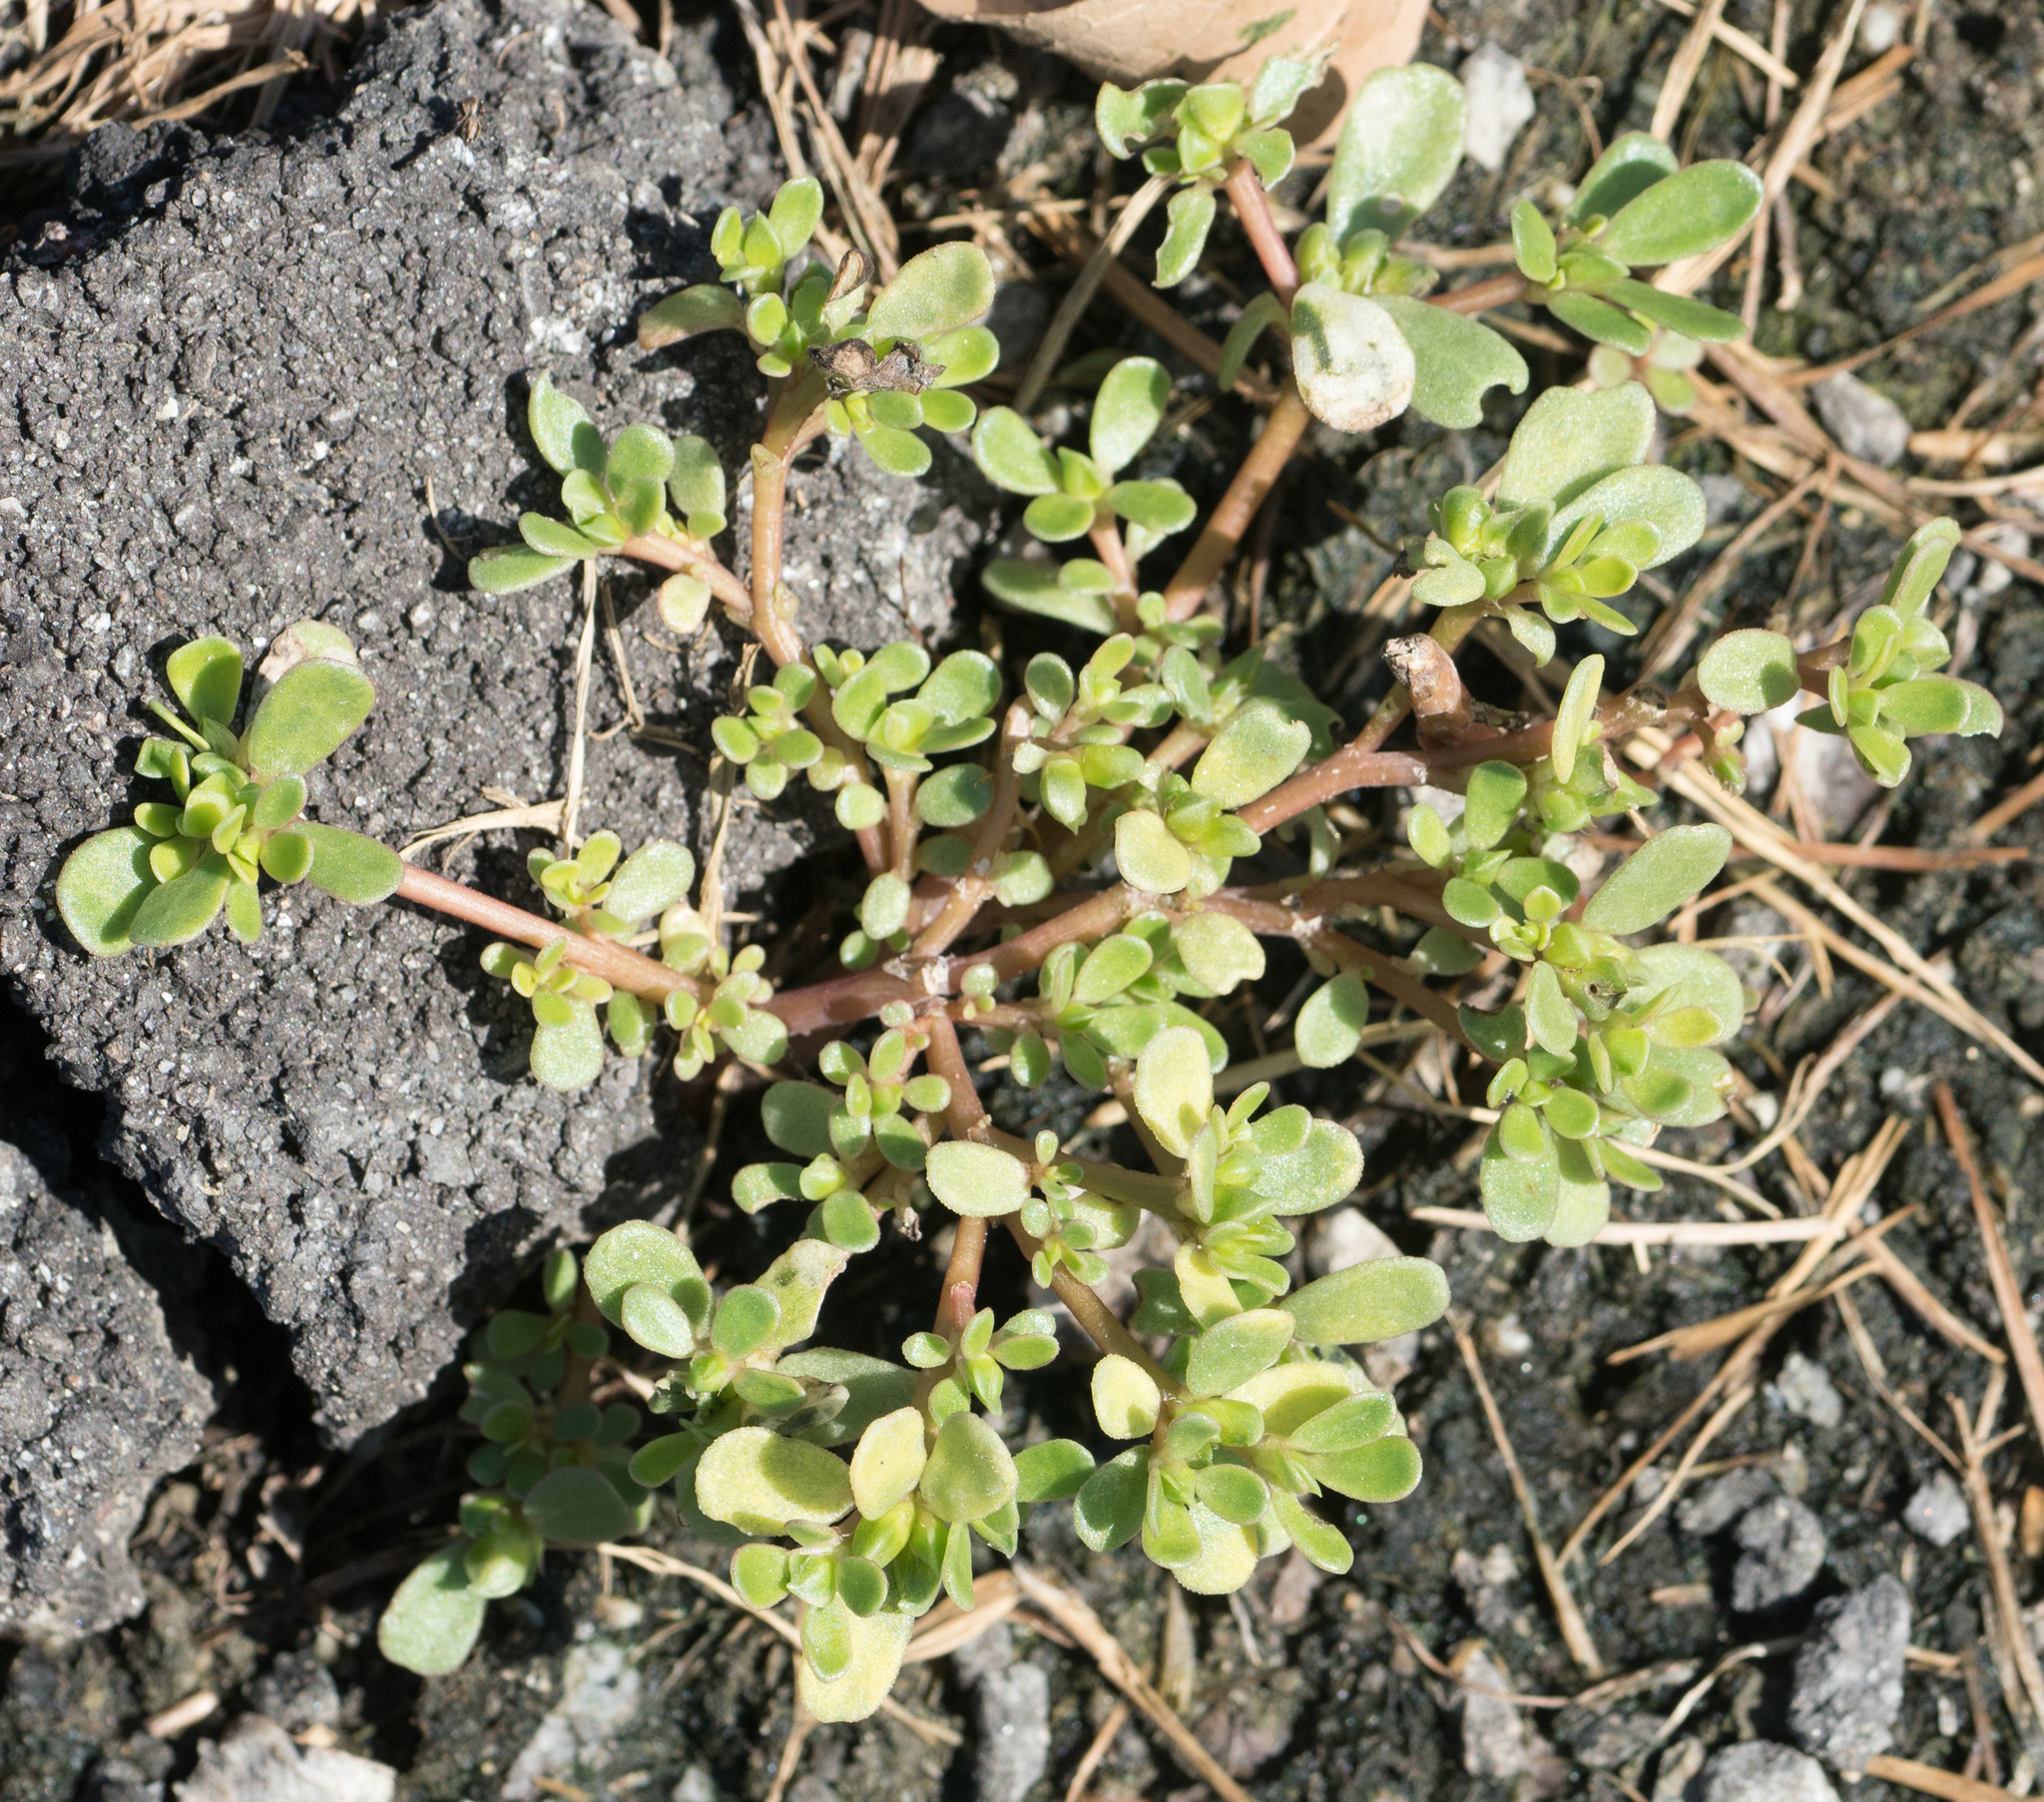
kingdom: Plantae
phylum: Tracheophyta
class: Magnoliopsida
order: Caryophyllales
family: Portulacaceae
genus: Portulaca
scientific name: Portulaca oleracea
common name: Common purslane
